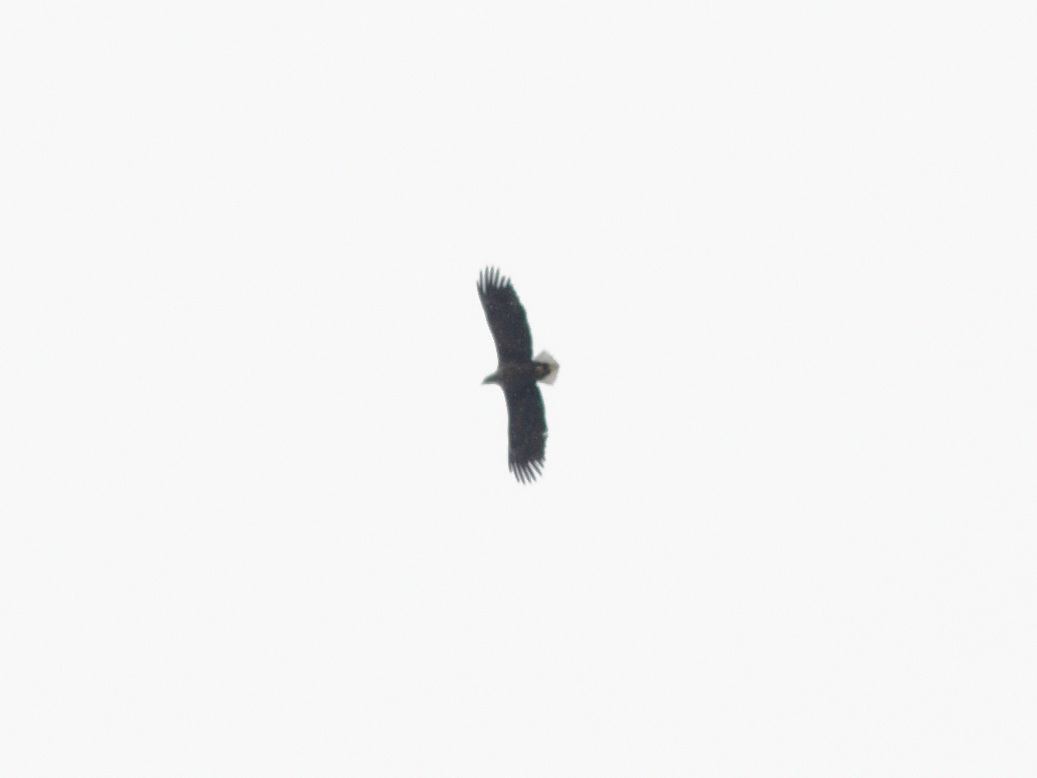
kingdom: Animalia
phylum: Chordata
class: Aves
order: Accipitriformes
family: Accipitridae
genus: Haliaeetus
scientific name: Haliaeetus albicilla
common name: White-tailed eagle
